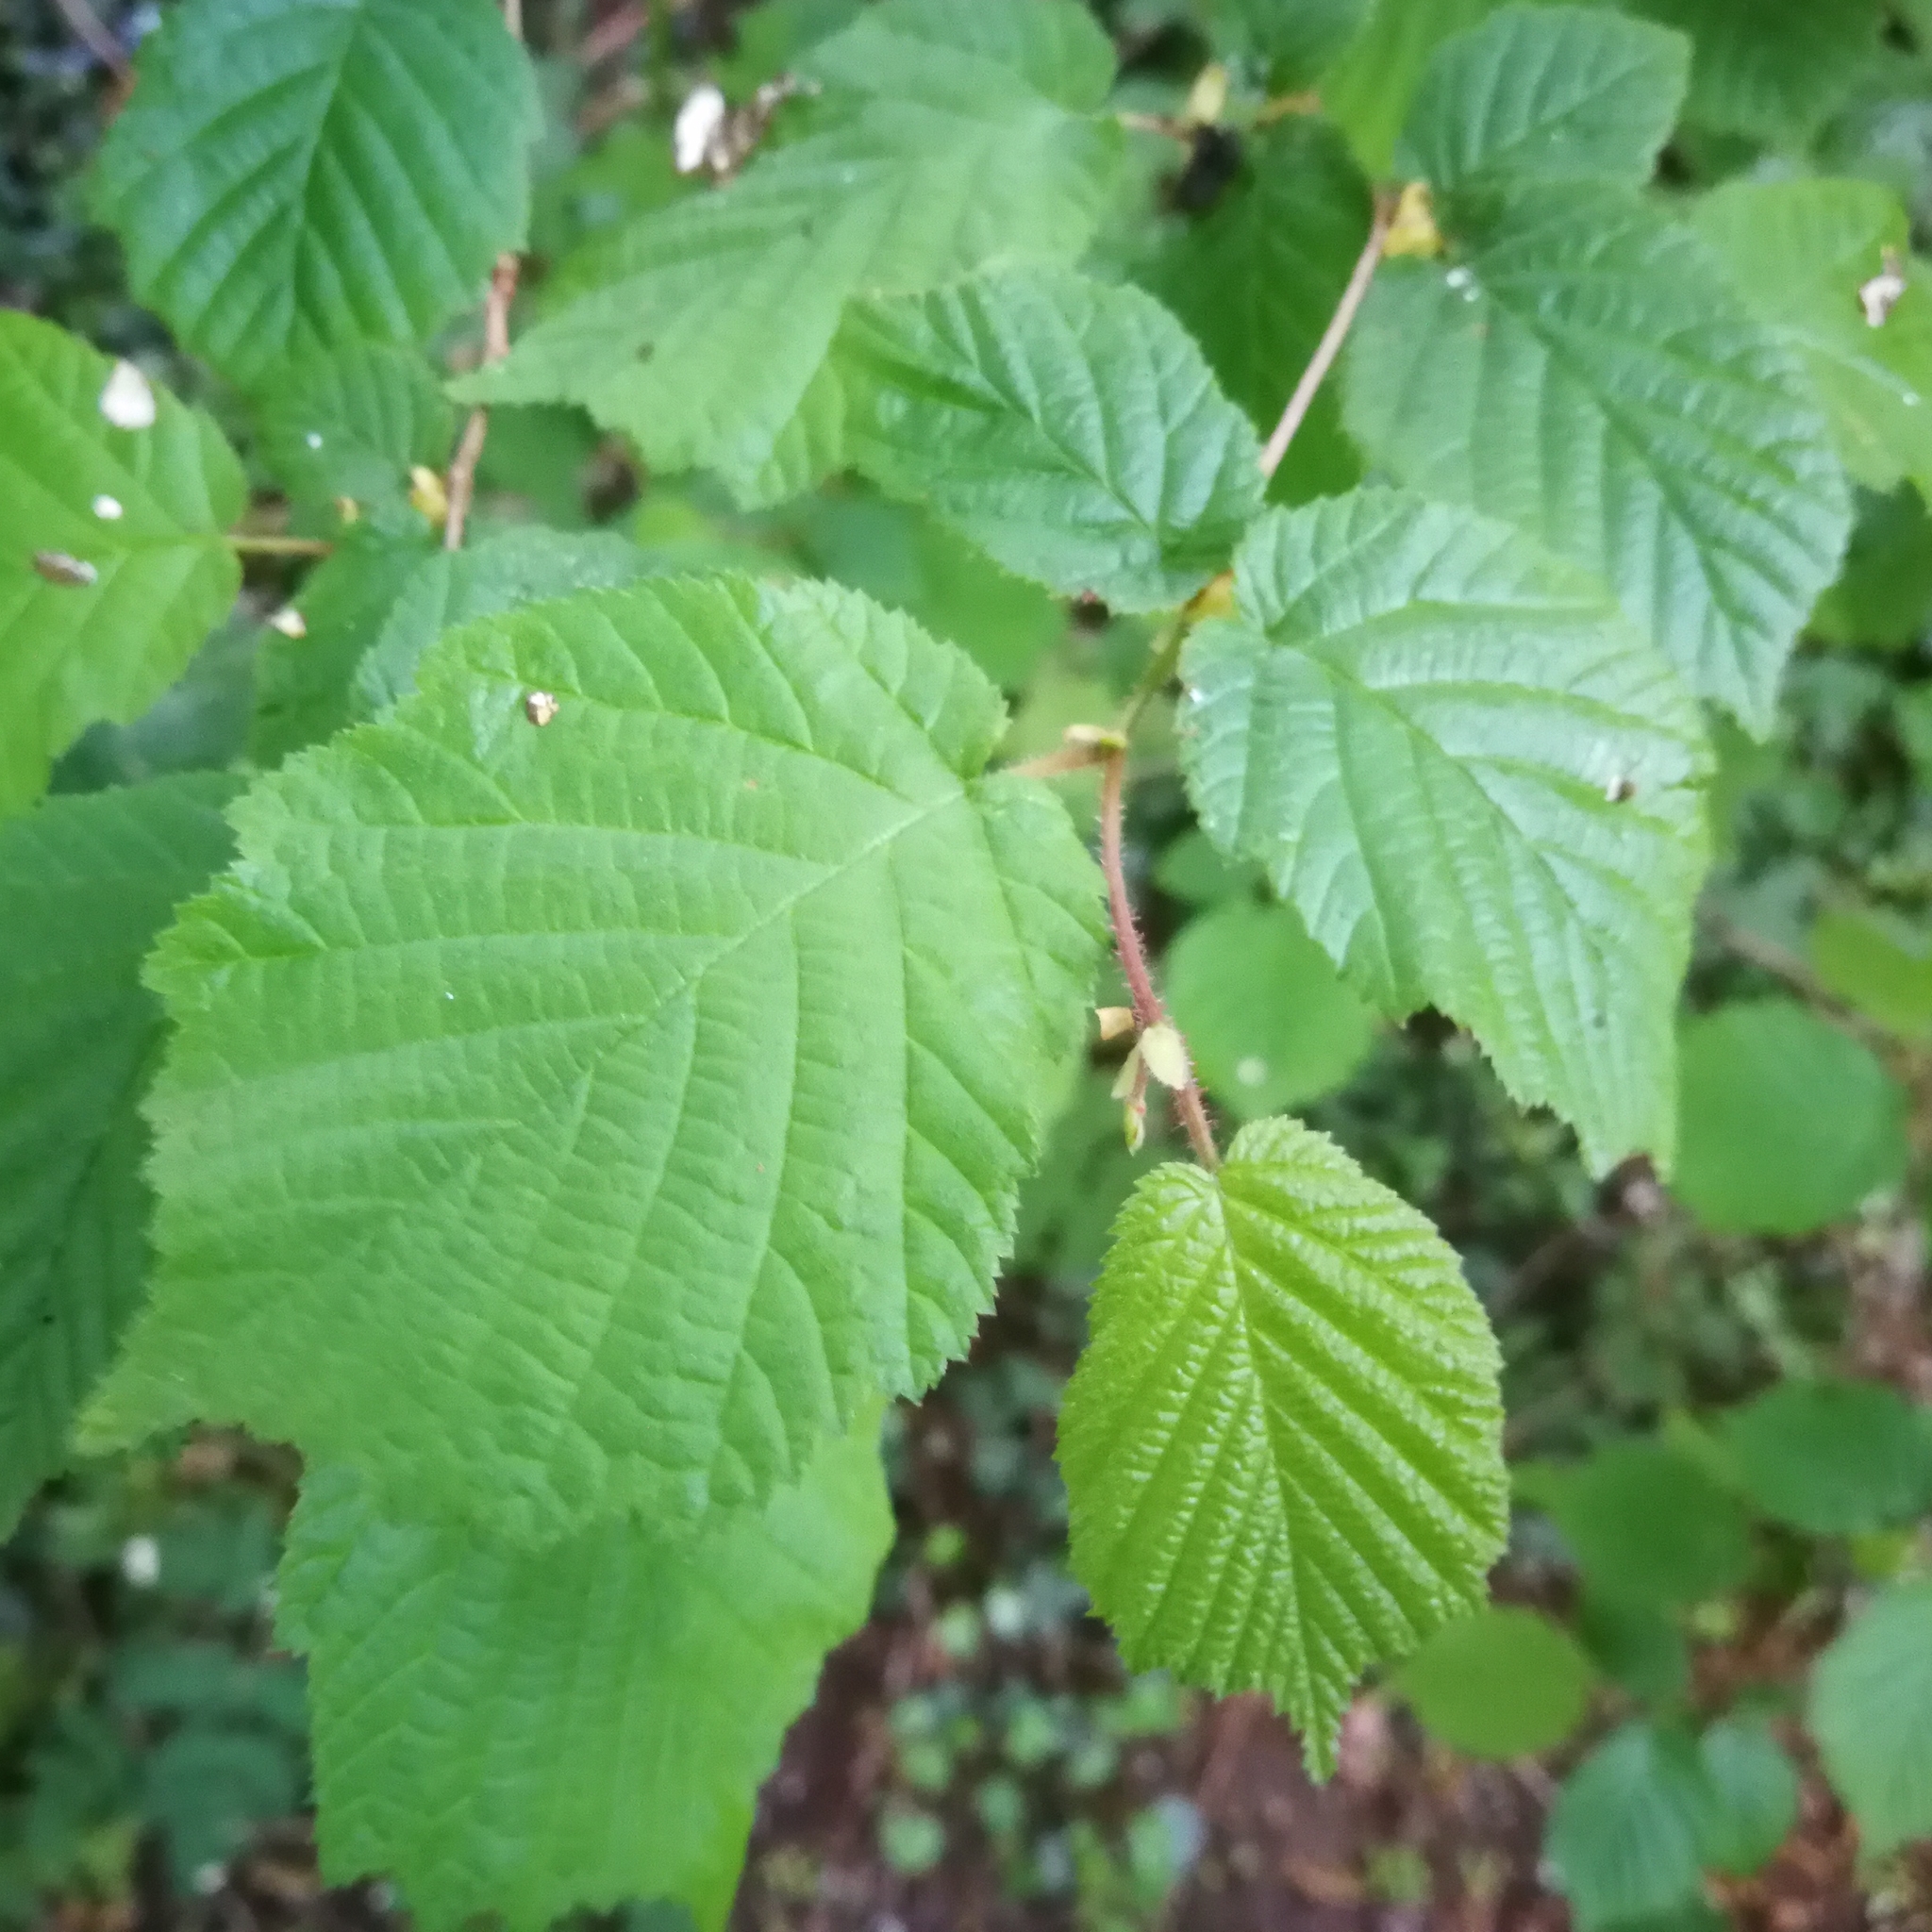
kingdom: Plantae
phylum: Tracheophyta
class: Magnoliopsida
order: Fagales
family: Betulaceae
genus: Corylus
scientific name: Corylus avellana
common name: European hazel
